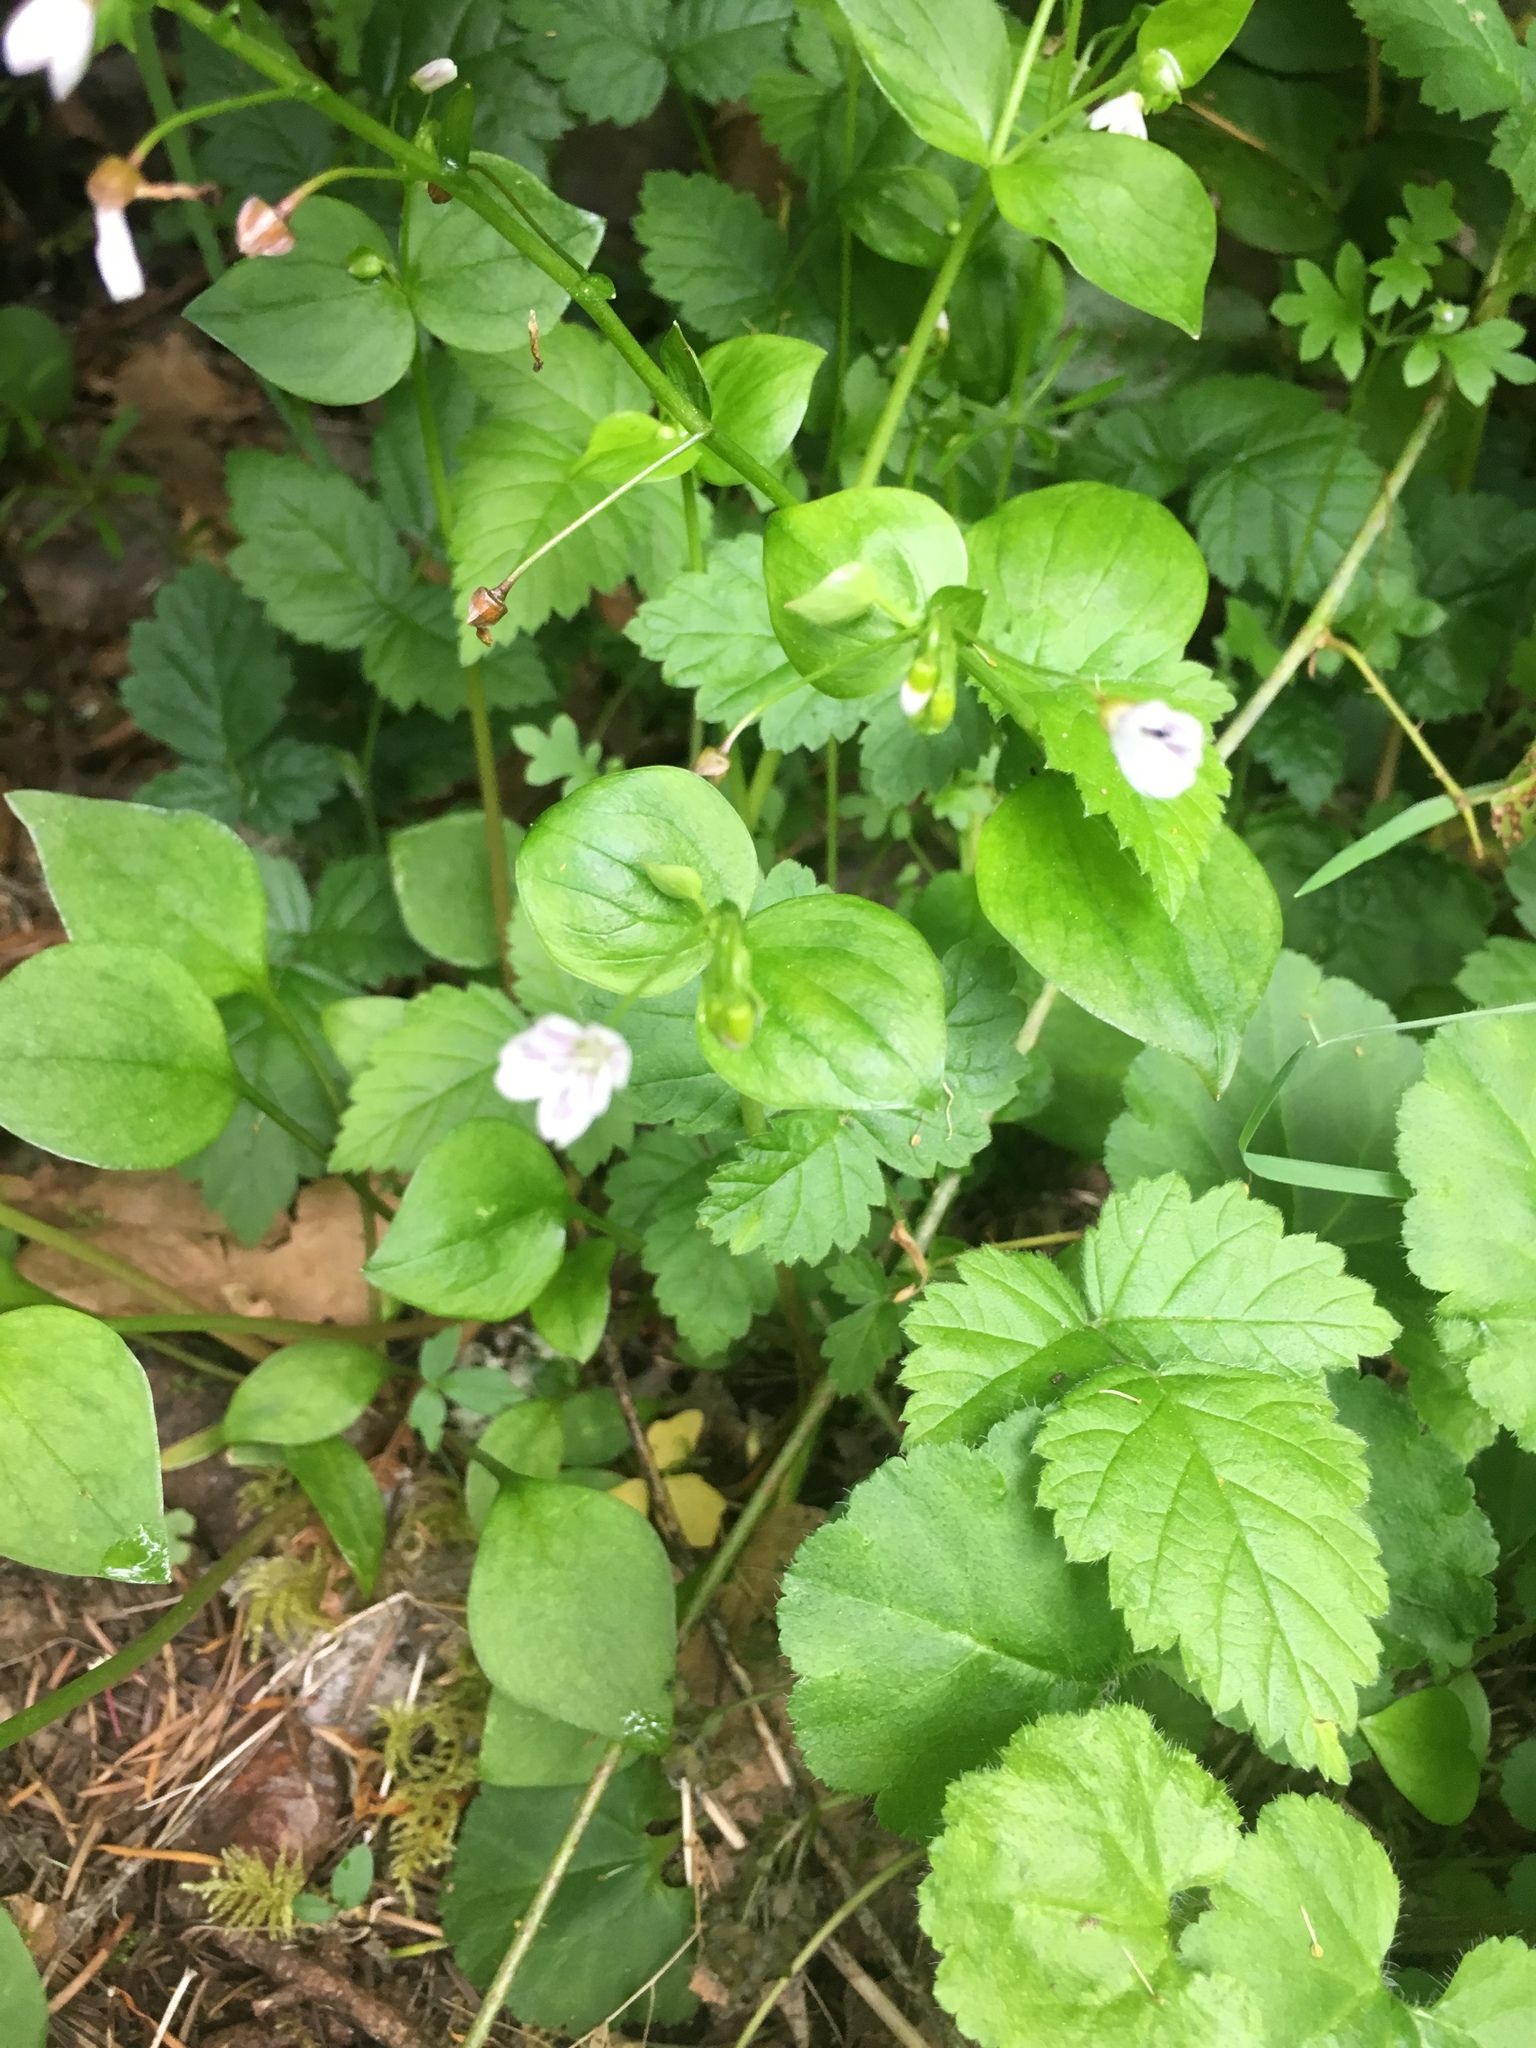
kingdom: Plantae
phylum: Tracheophyta
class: Magnoliopsida
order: Caryophyllales
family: Montiaceae
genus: Claytonia
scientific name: Claytonia sibirica
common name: Pink purslane
